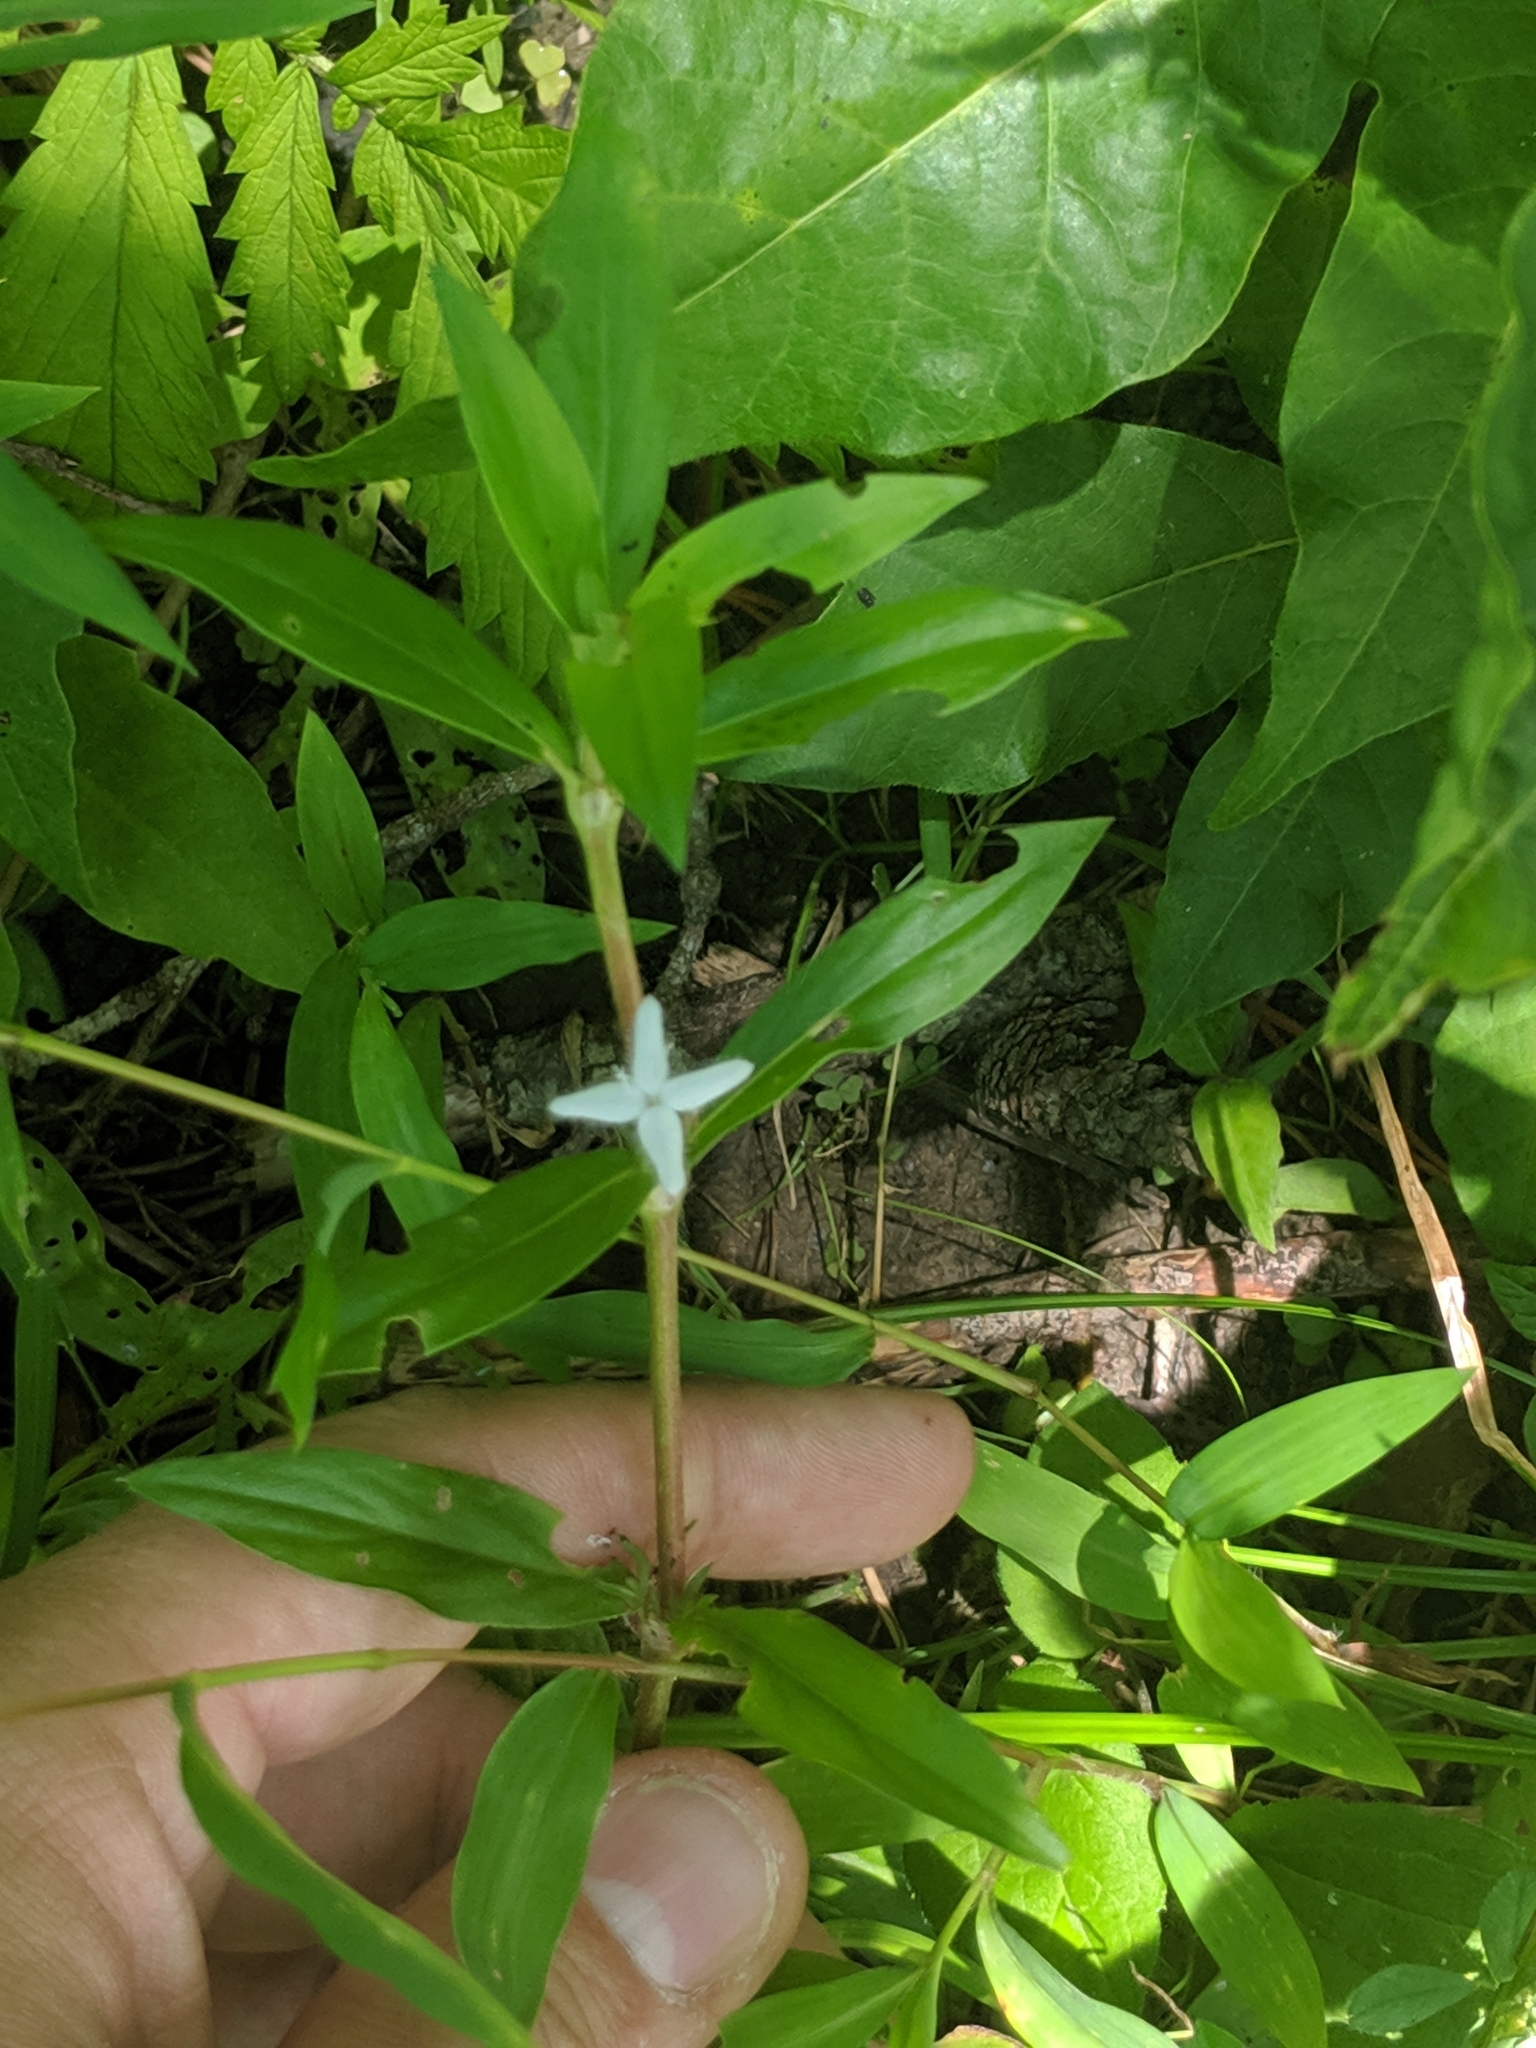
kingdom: Plantae
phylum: Tracheophyta
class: Magnoliopsida
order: Gentianales
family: Rubiaceae
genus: Diodia
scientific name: Diodia virginiana
